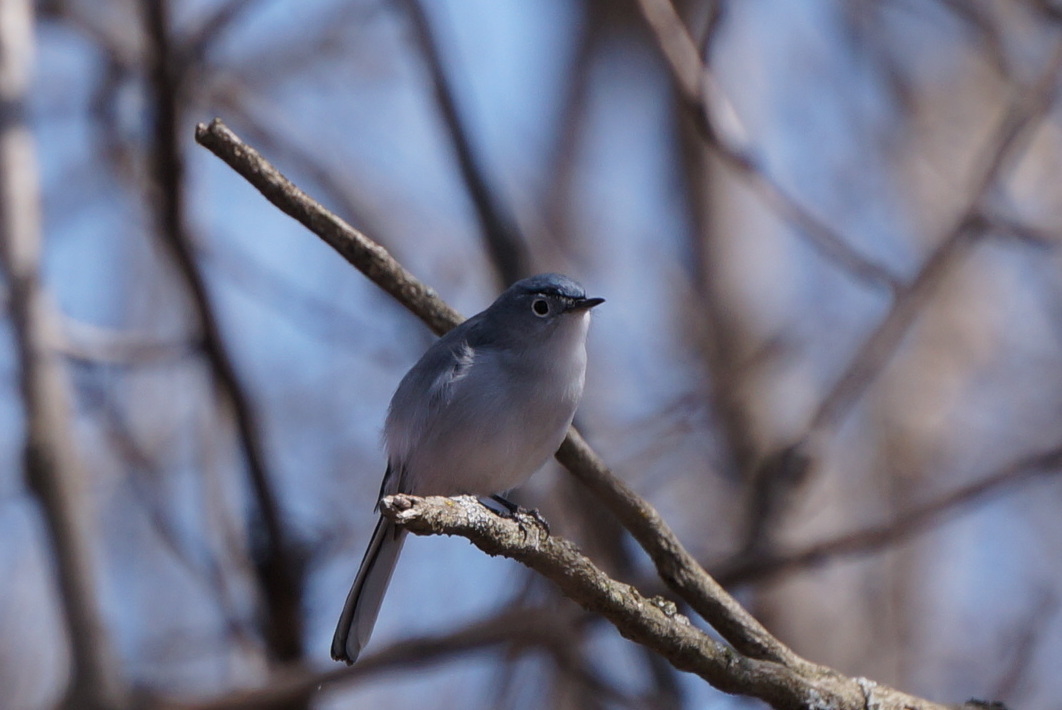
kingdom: Animalia
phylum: Chordata
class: Aves
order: Passeriformes
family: Polioptilidae
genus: Polioptila
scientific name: Polioptila caerulea
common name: Blue-gray gnatcatcher
